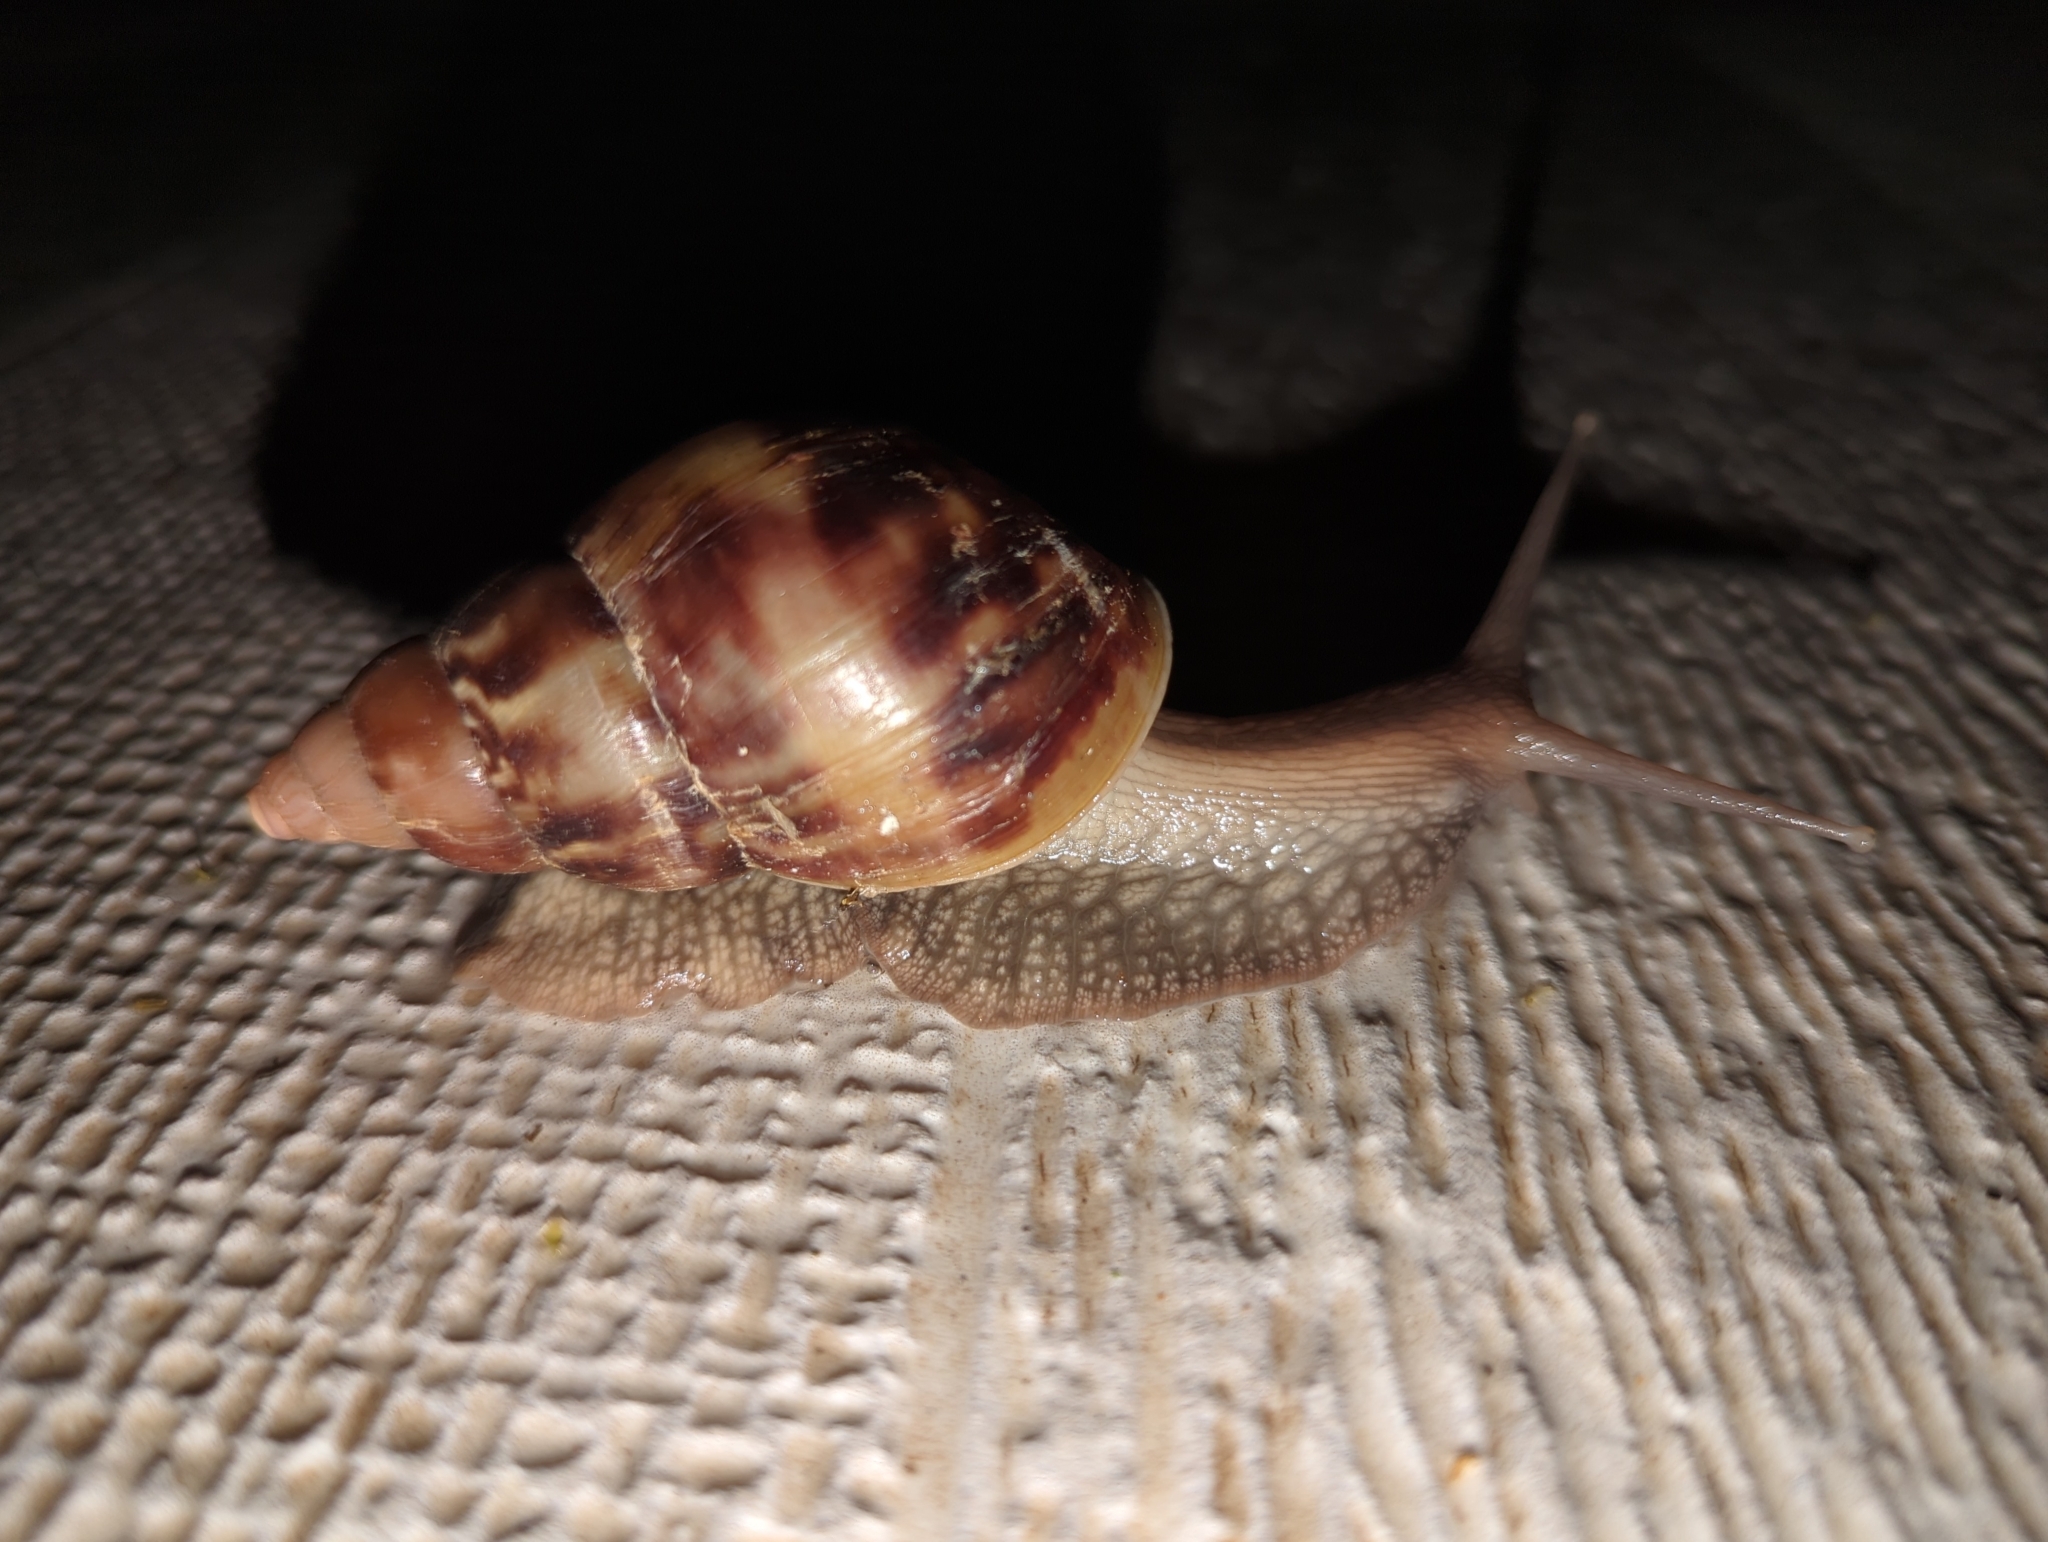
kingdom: Animalia
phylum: Mollusca
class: Gastropoda
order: Stylommatophora
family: Achatinidae
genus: Lissachatina
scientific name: Lissachatina fulica
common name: Giant african snail
